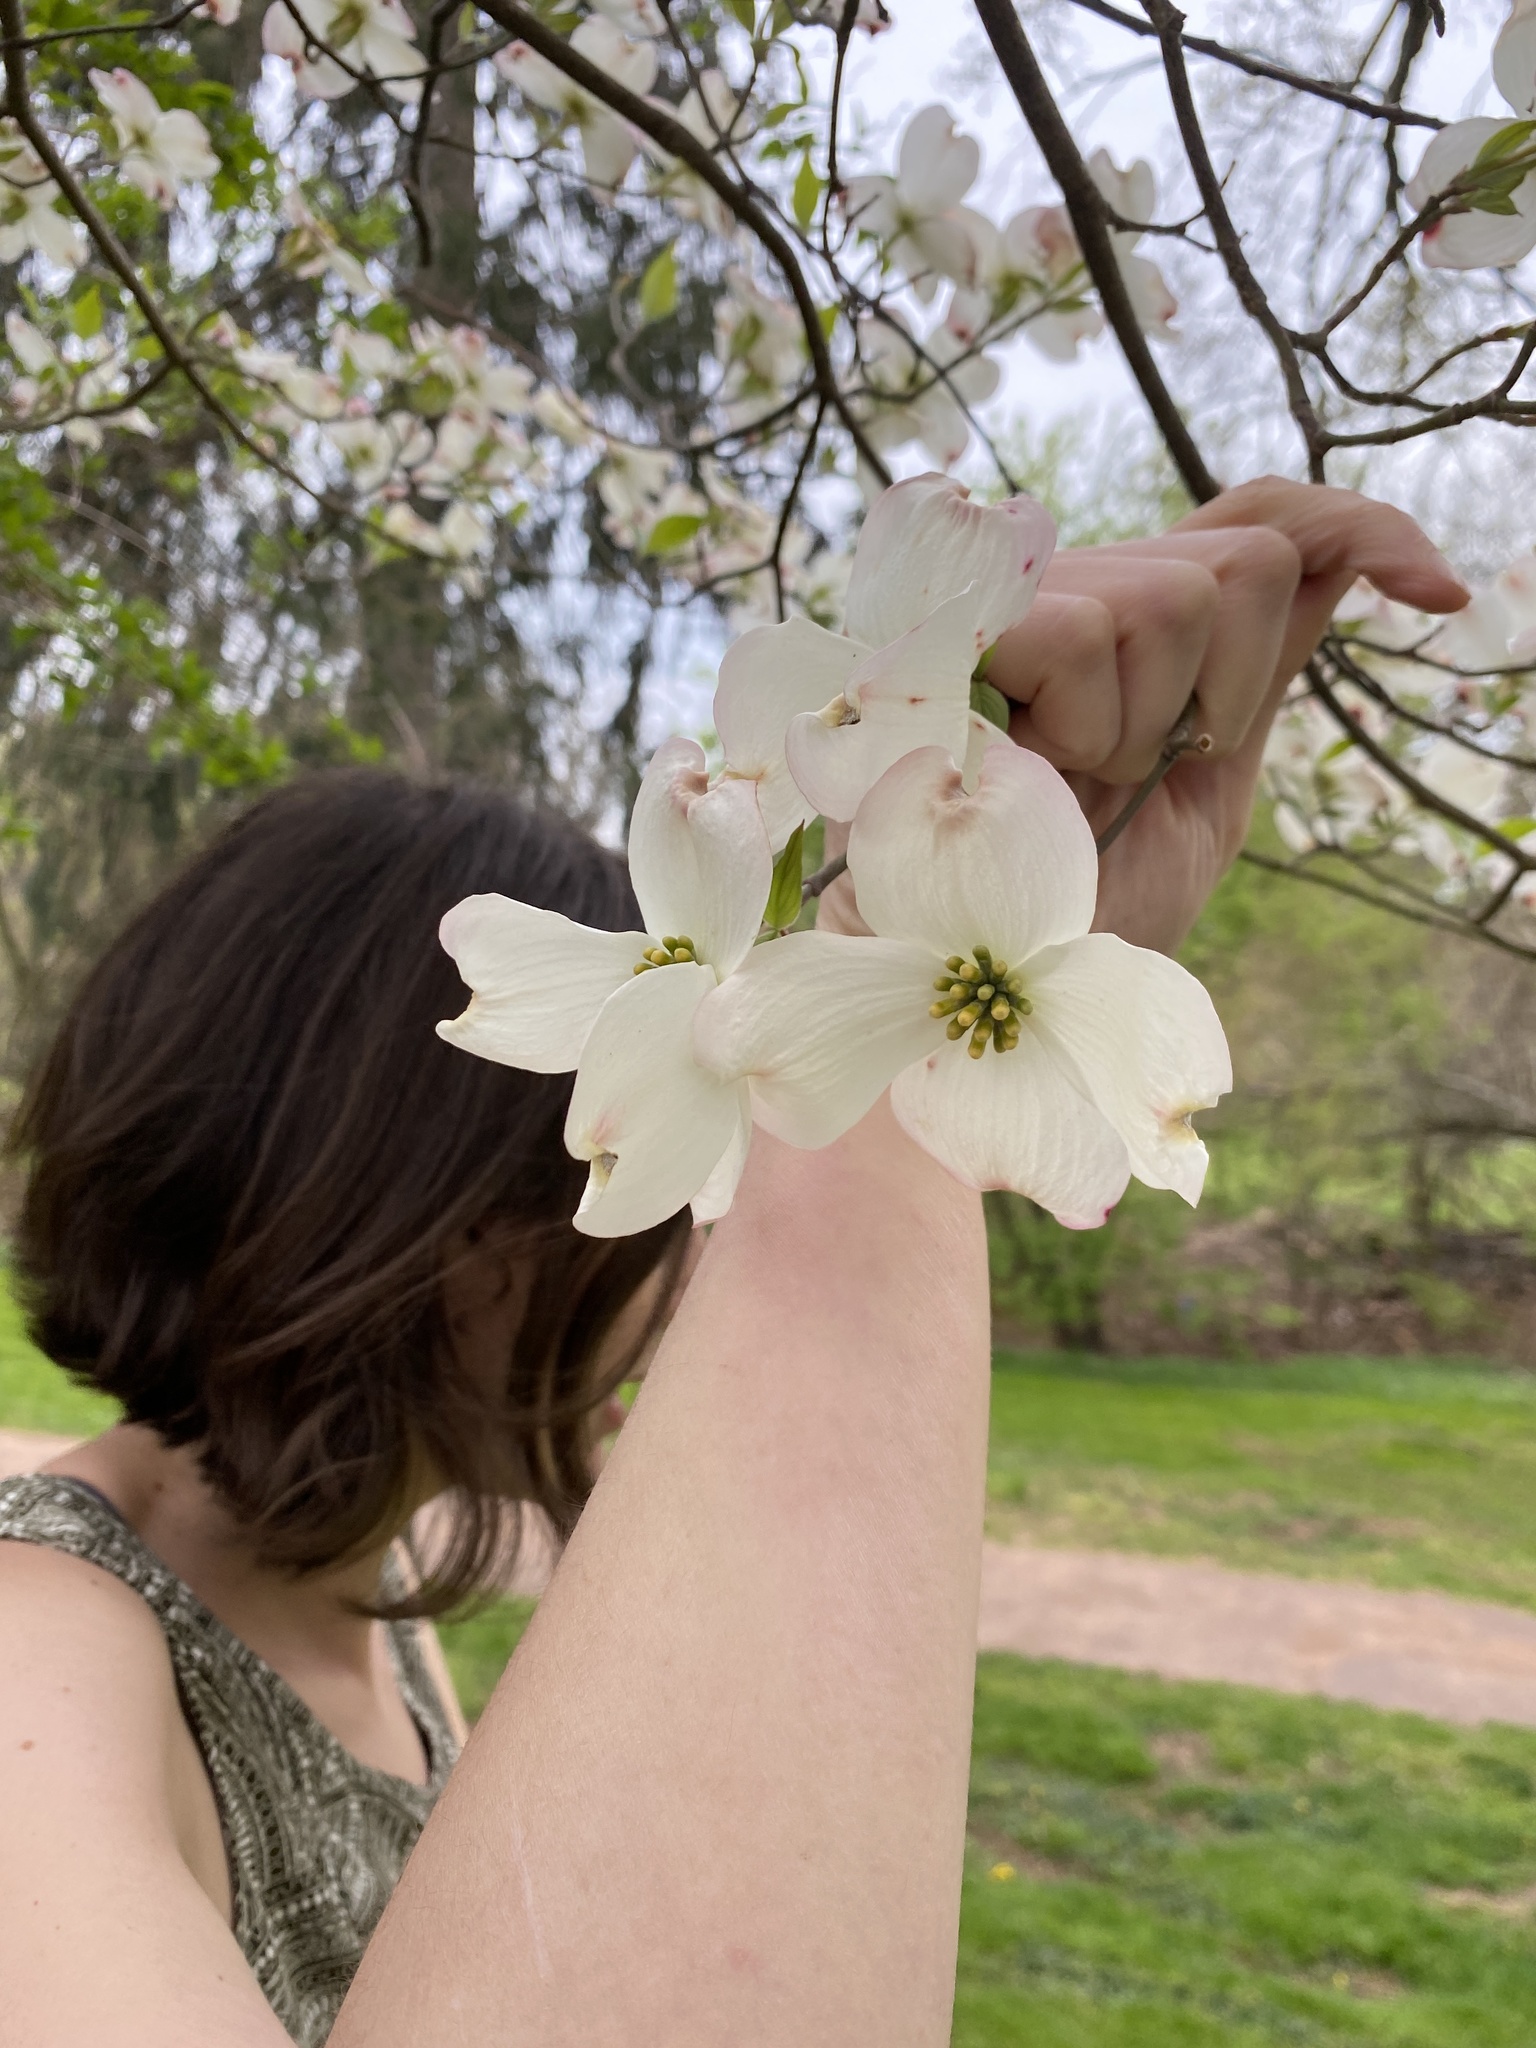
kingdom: Fungi
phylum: Ascomycota
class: Dothideomycetes
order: Myriangiales
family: Elsinoaceae
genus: Elsinoe
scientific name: Elsinoe corni
